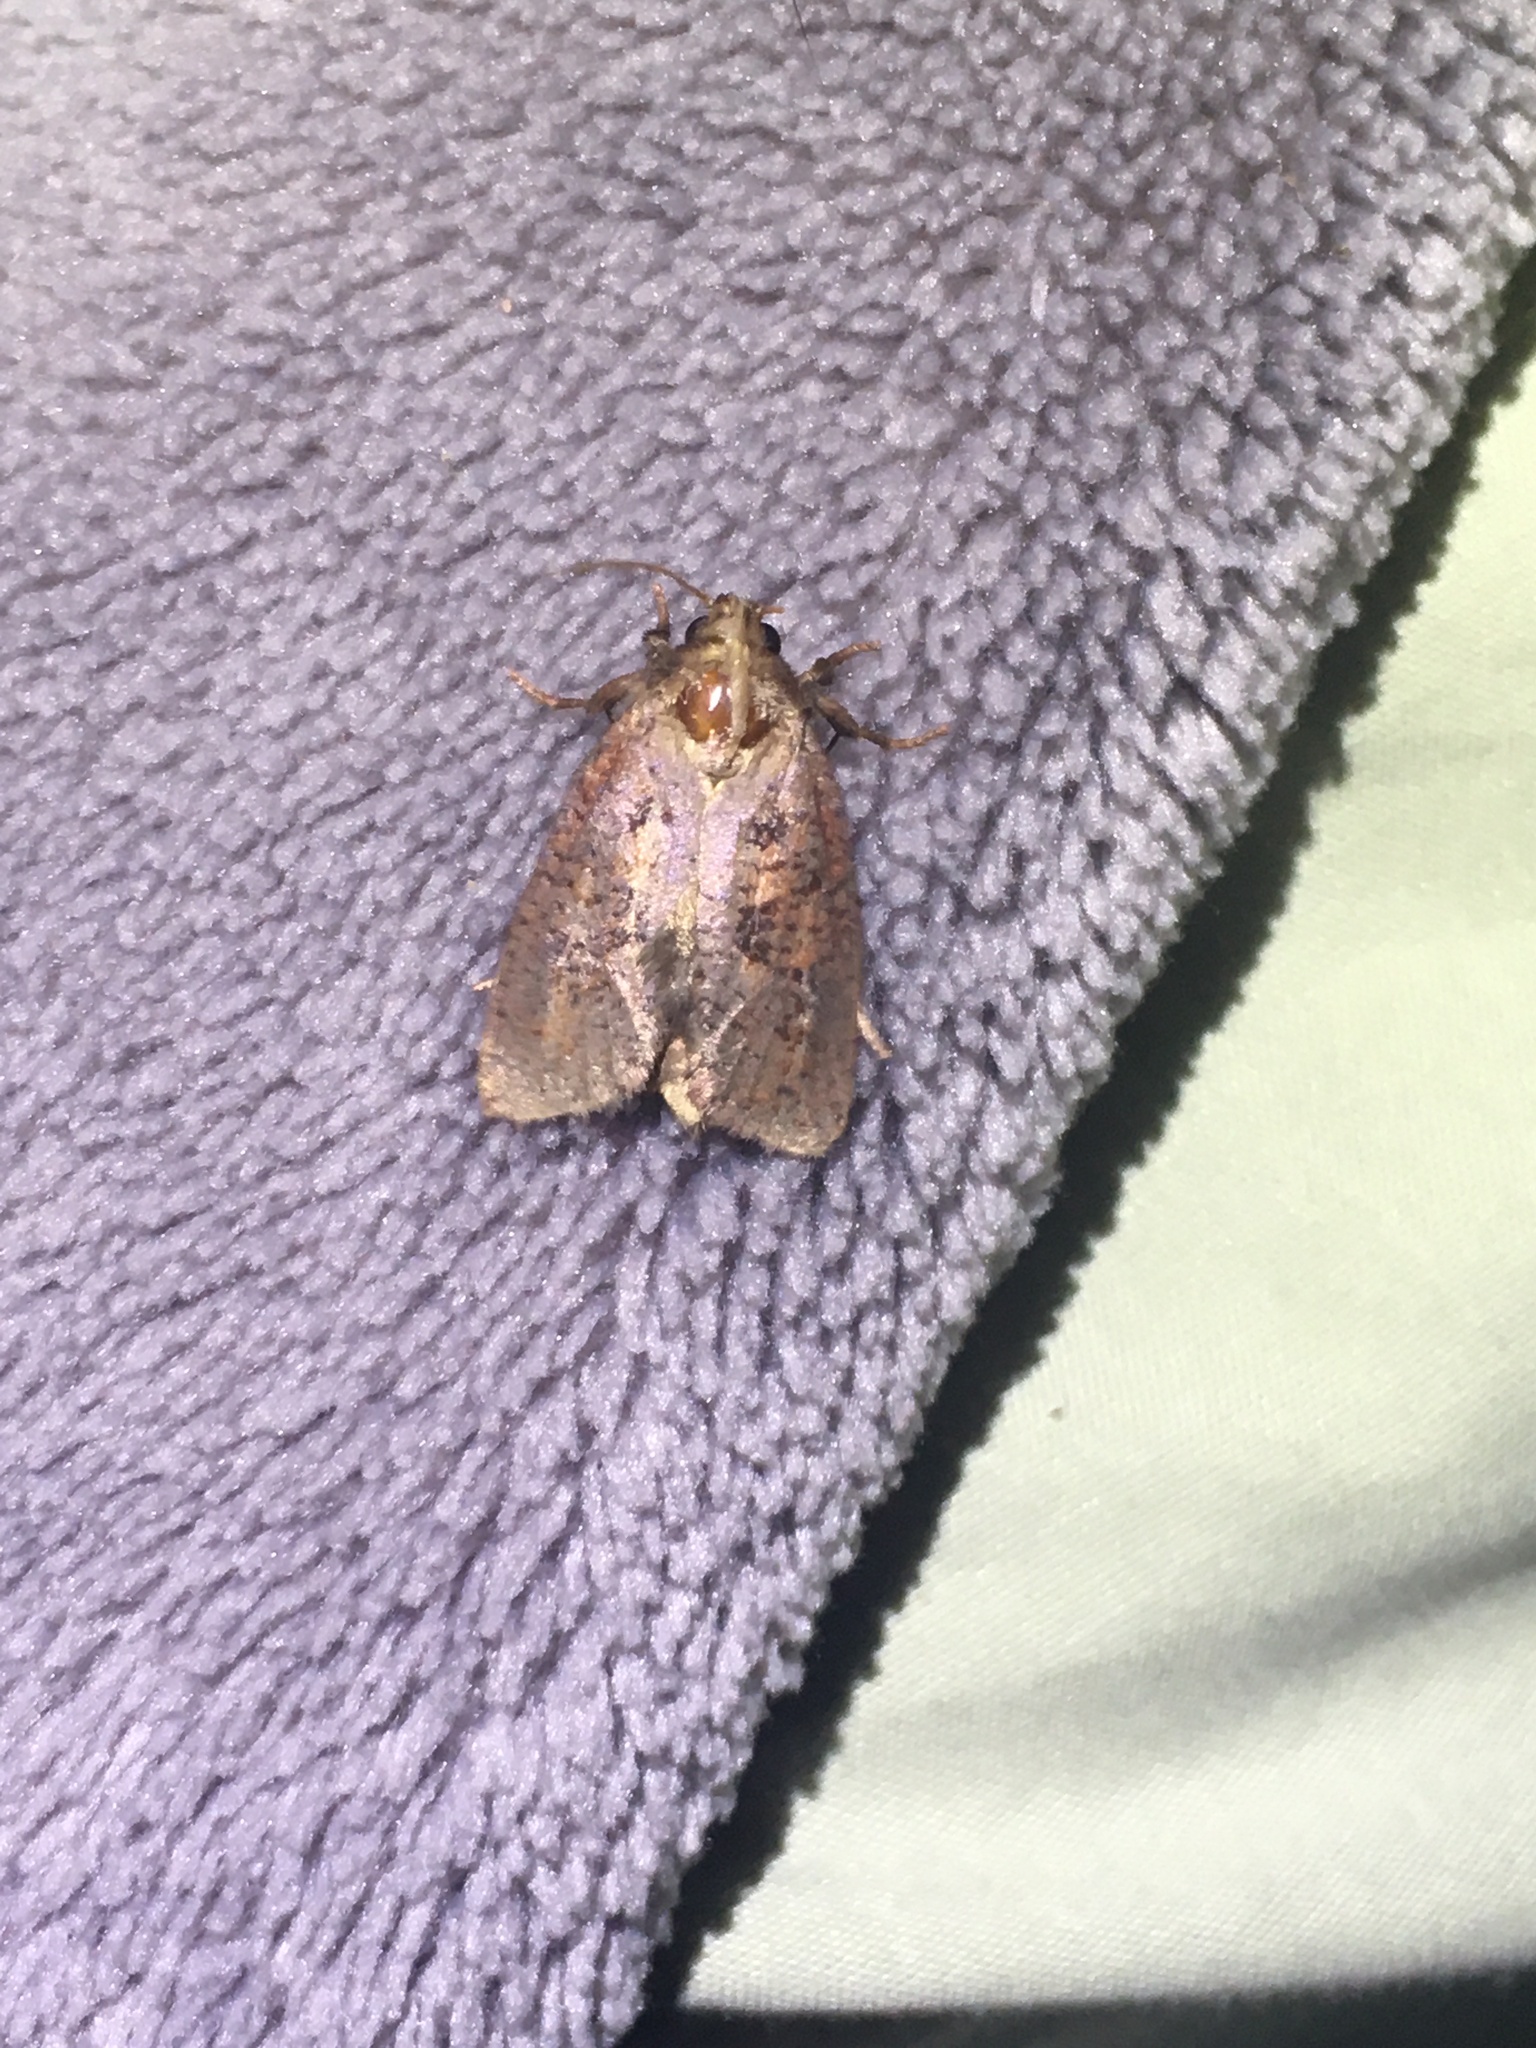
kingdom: Animalia
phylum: Arthropoda
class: Insecta
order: Lepidoptera
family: Tineidae
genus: Acrolophus
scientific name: Acrolophus plumifrontella
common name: Eastern grass tubeworm moth
